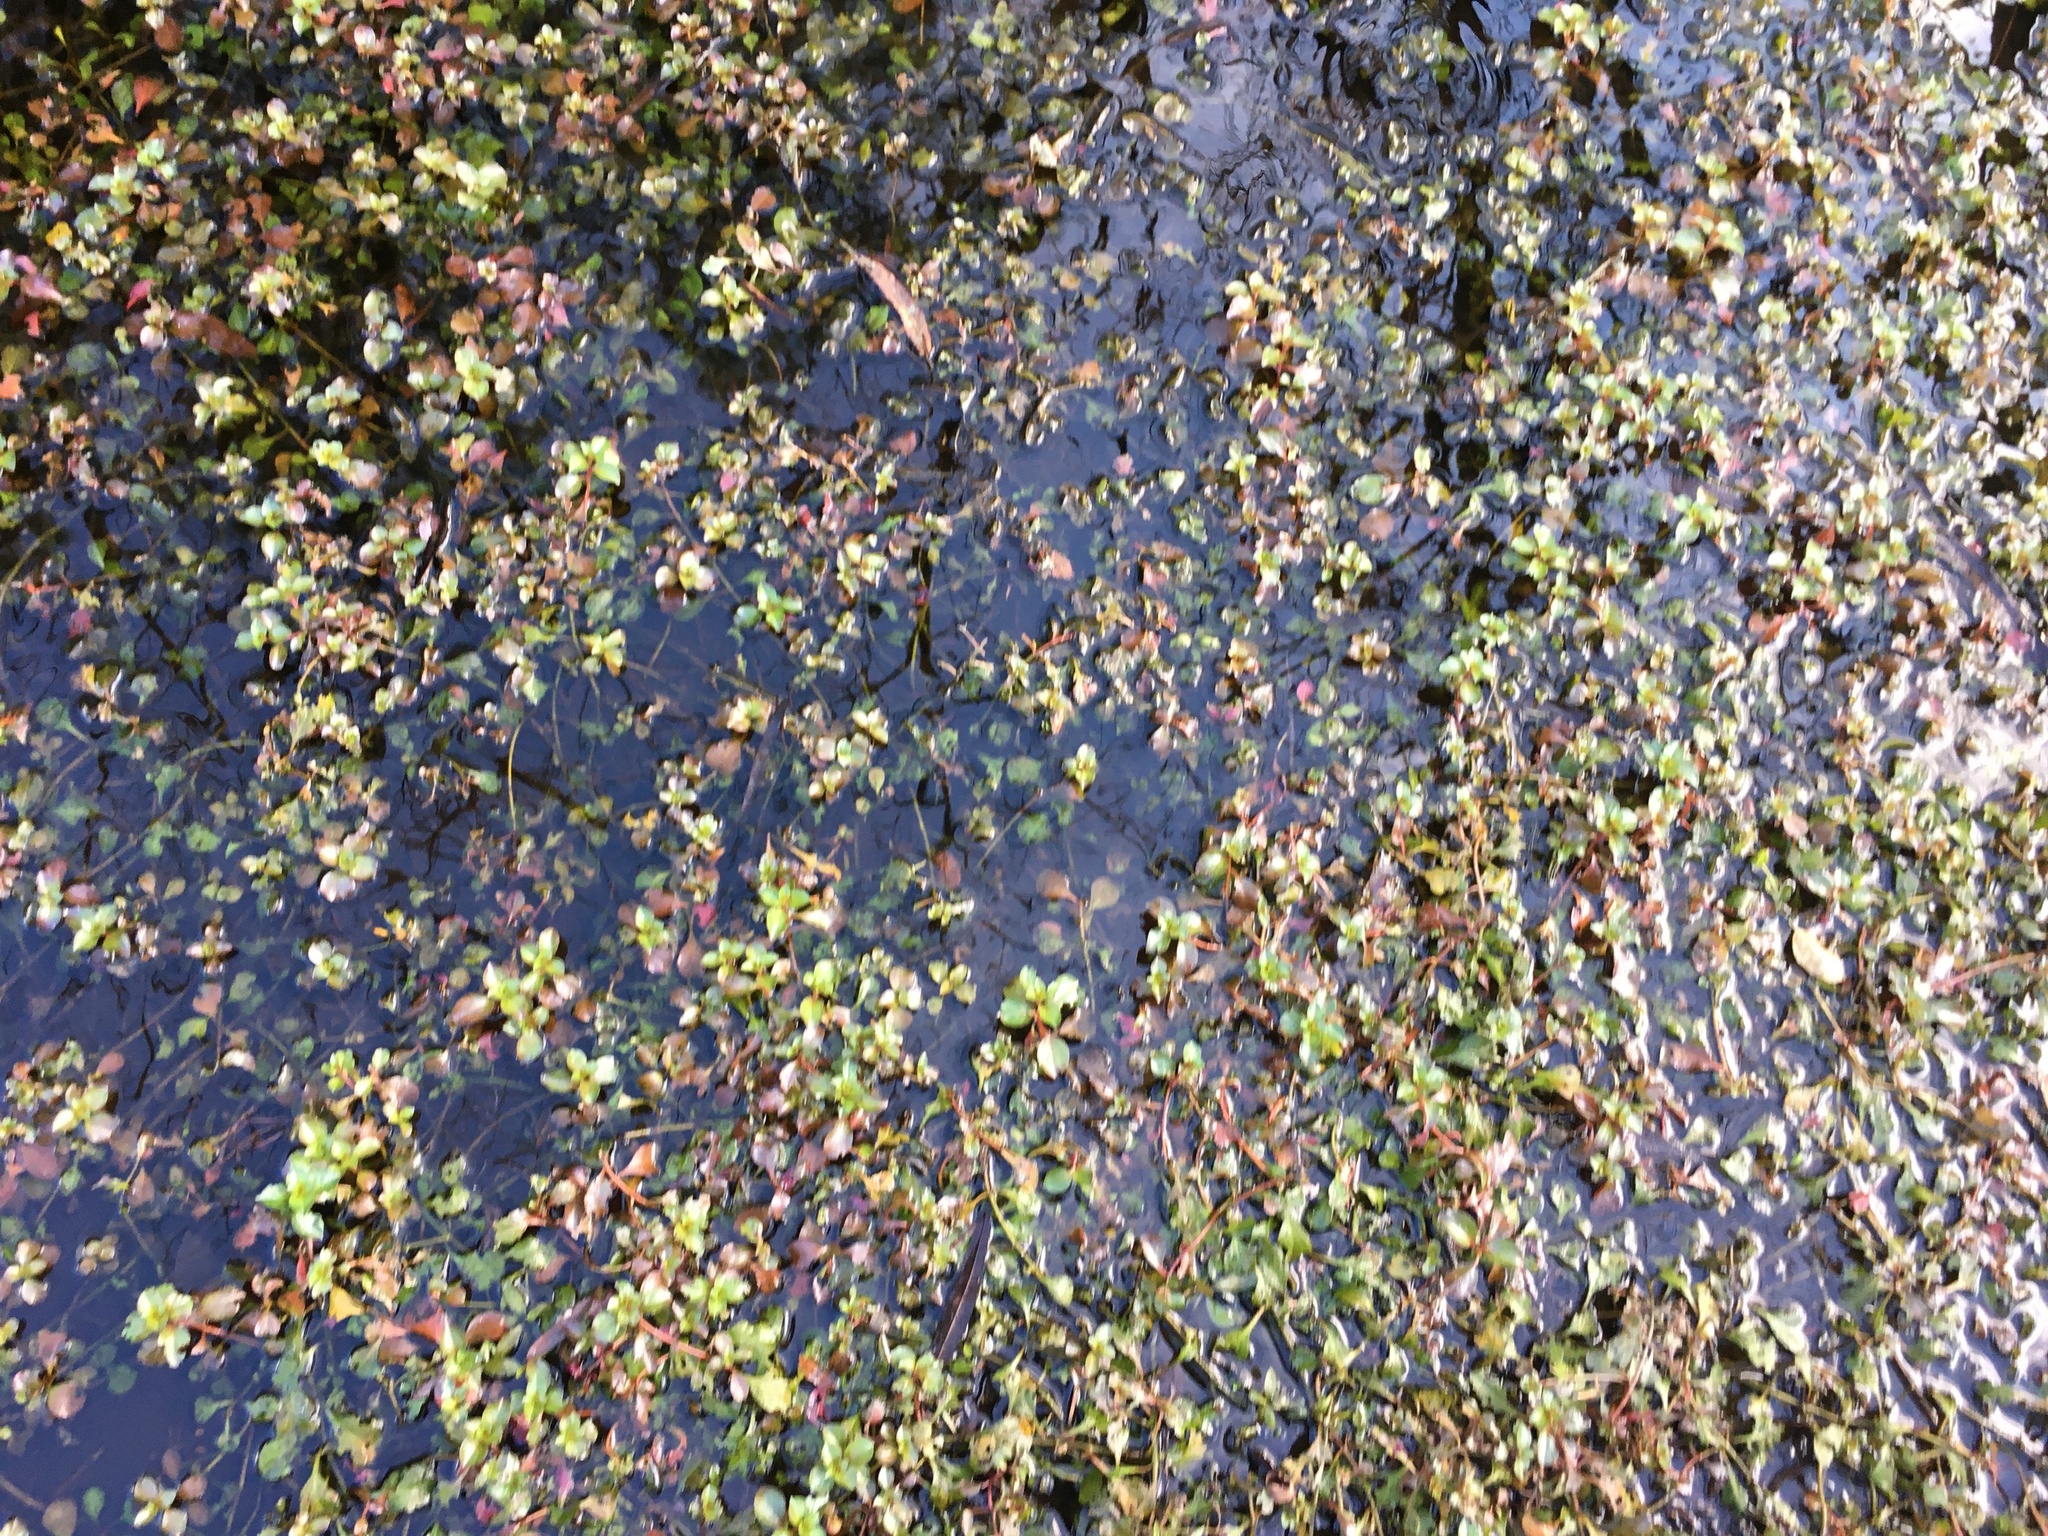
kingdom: Plantae
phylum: Tracheophyta
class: Magnoliopsida
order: Myrtales
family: Onagraceae
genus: Ludwigia
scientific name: Ludwigia peploides
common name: Floating primrose-willow
